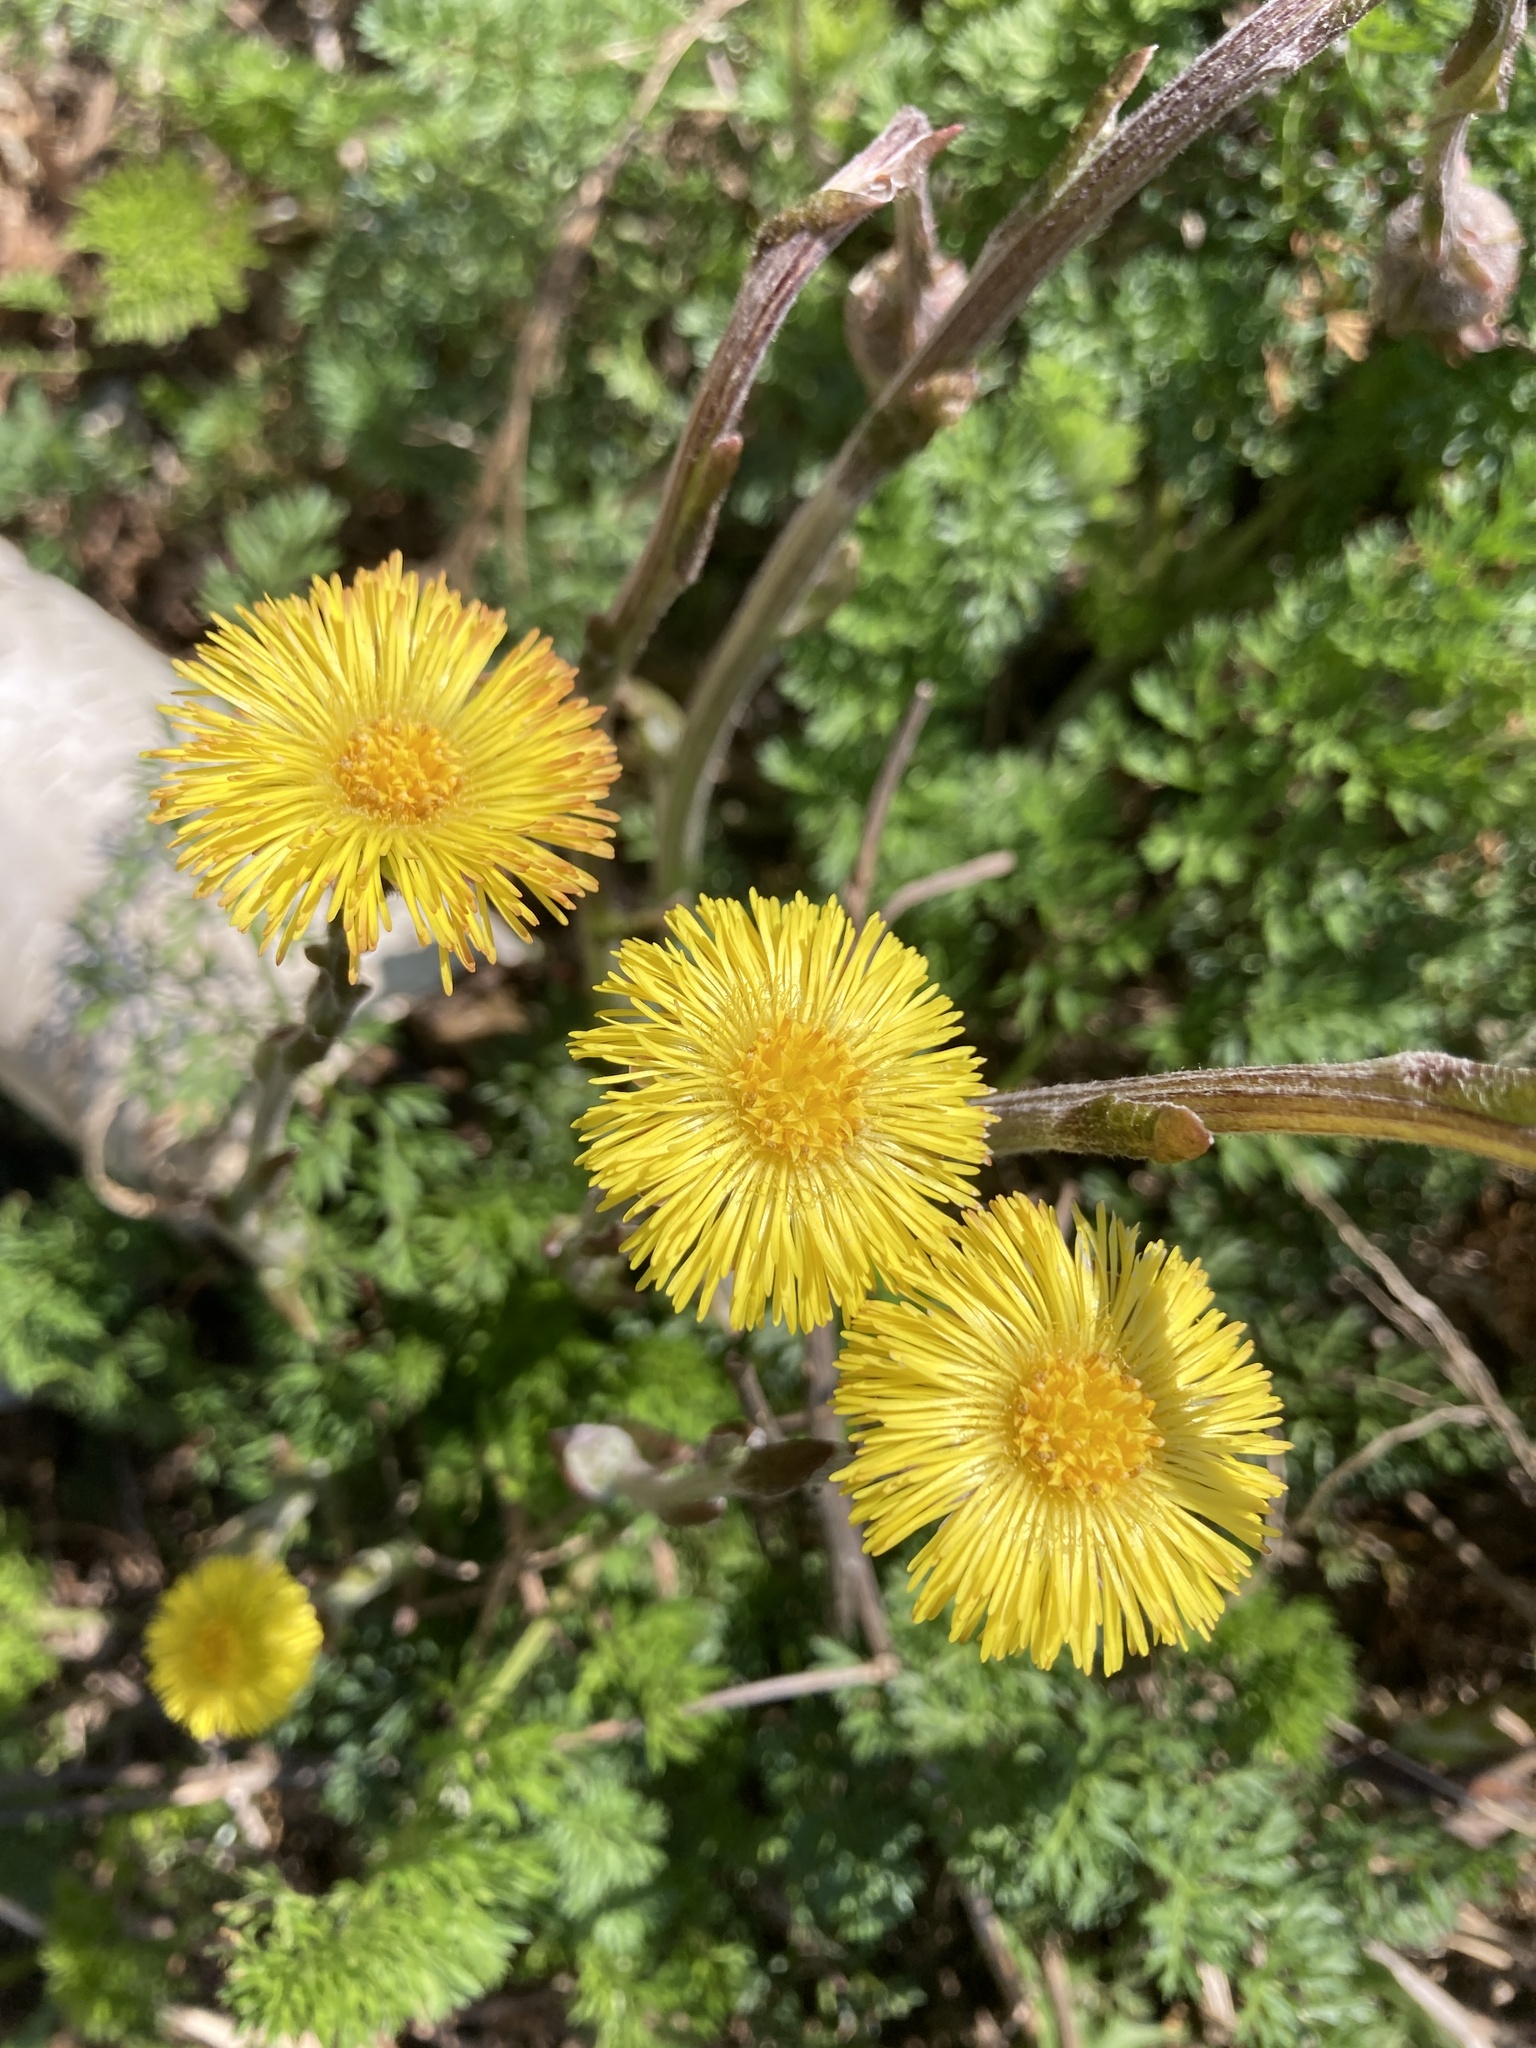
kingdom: Plantae
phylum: Tracheophyta
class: Magnoliopsida
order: Asterales
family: Asteraceae
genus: Tussilago
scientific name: Tussilago farfara
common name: Coltsfoot
